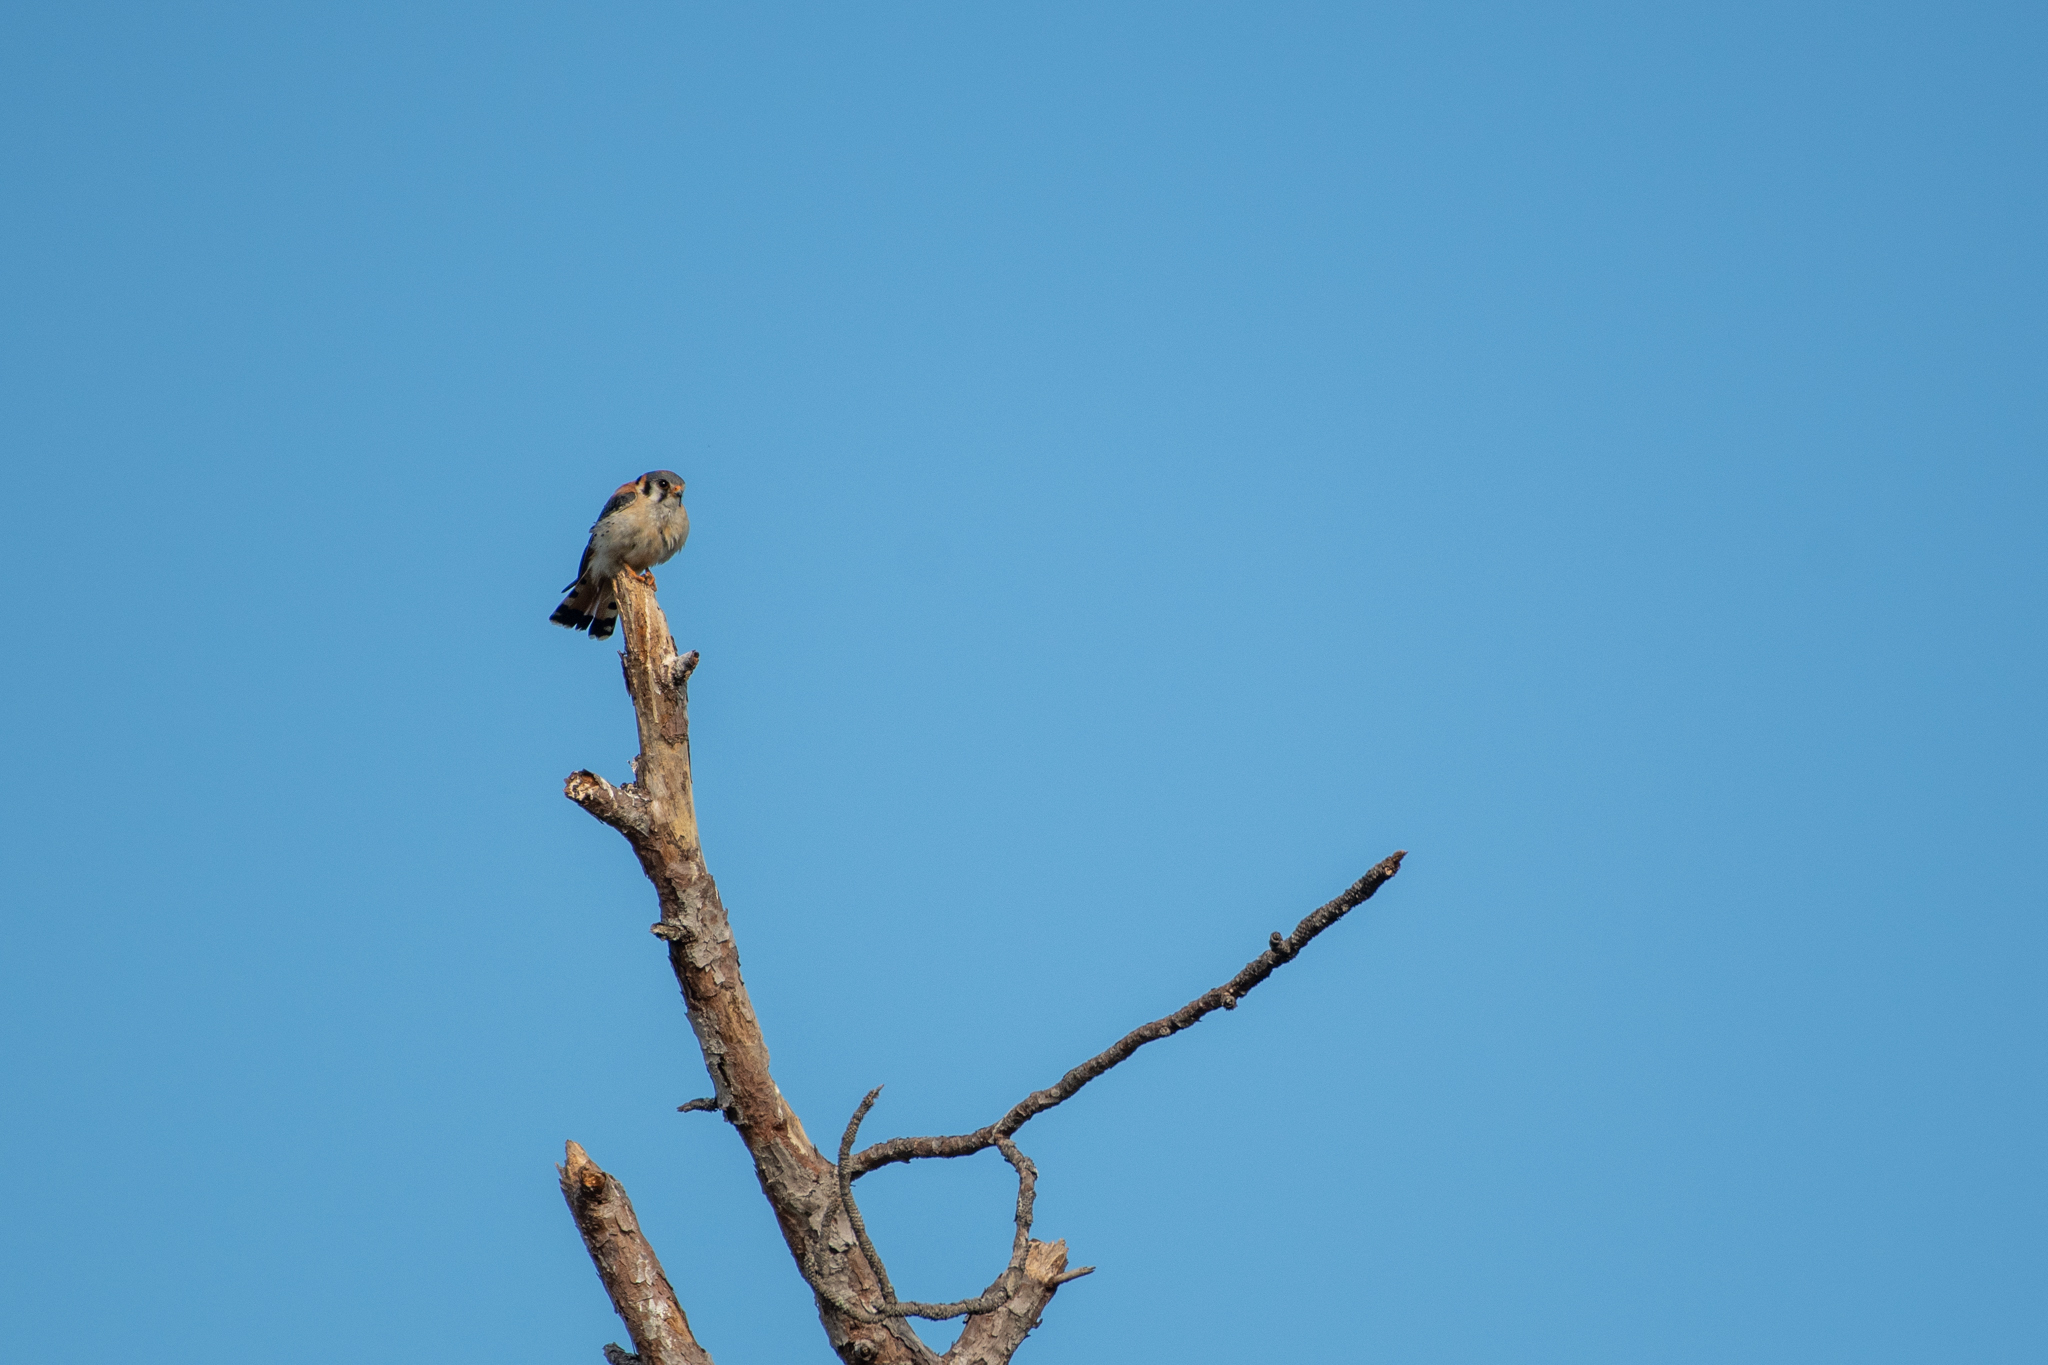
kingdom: Animalia
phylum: Chordata
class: Aves
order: Falconiformes
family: Falconidae
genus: Falco
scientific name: Falco sparverius
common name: American kestrel
